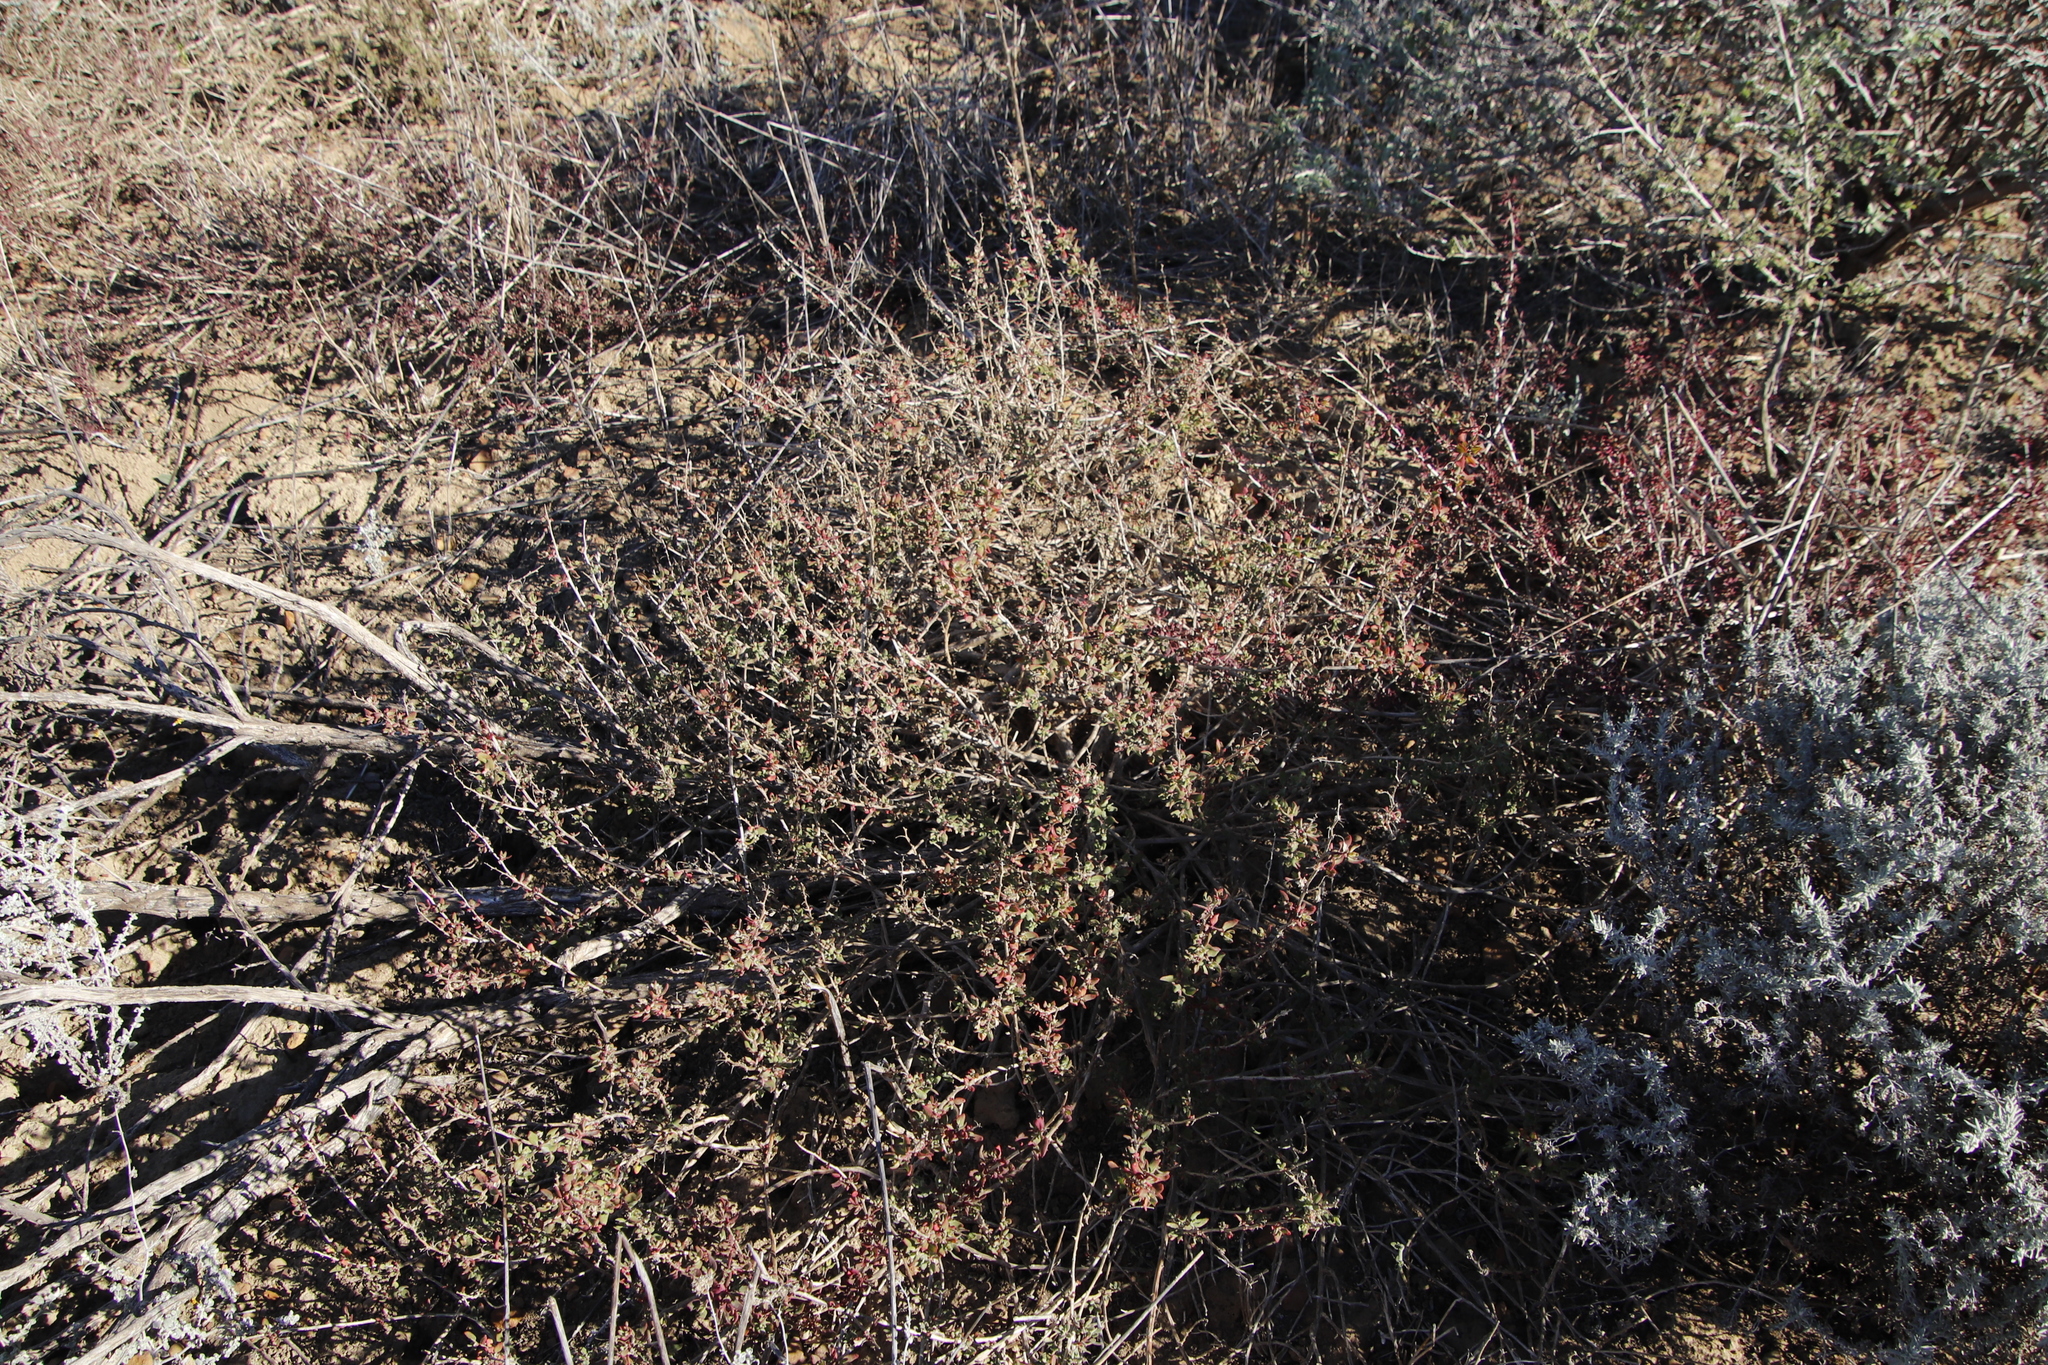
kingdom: Plantae
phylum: Tracheophyta
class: Magnoliopsida
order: Caryophyllales
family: Aizoaceae
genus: Tetragonia
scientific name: Tetragonia saligna
